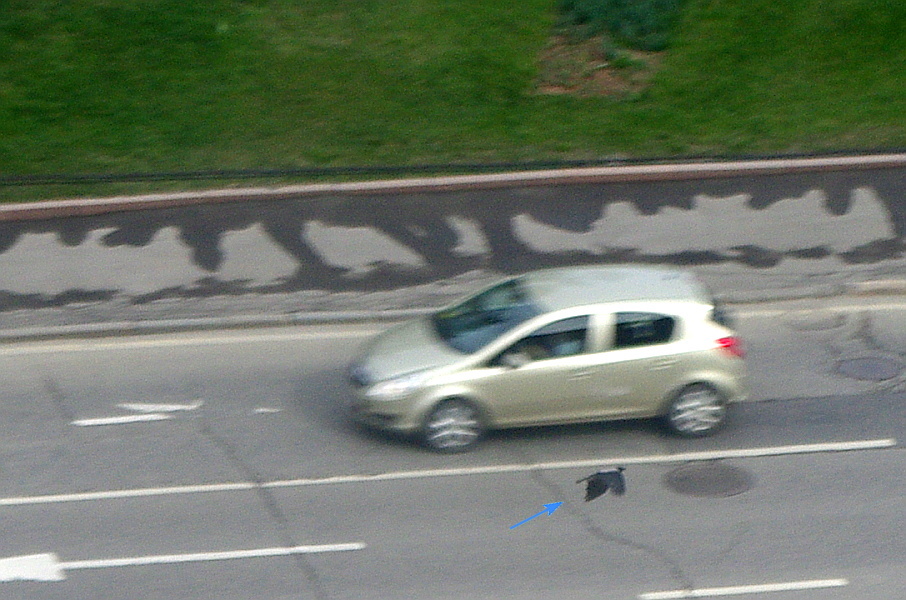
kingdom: Animalia
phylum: Chordata
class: Aves
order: Passeriformes
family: Corvidae
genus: Corvus
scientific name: Corvus cornix
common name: Hooded crow
